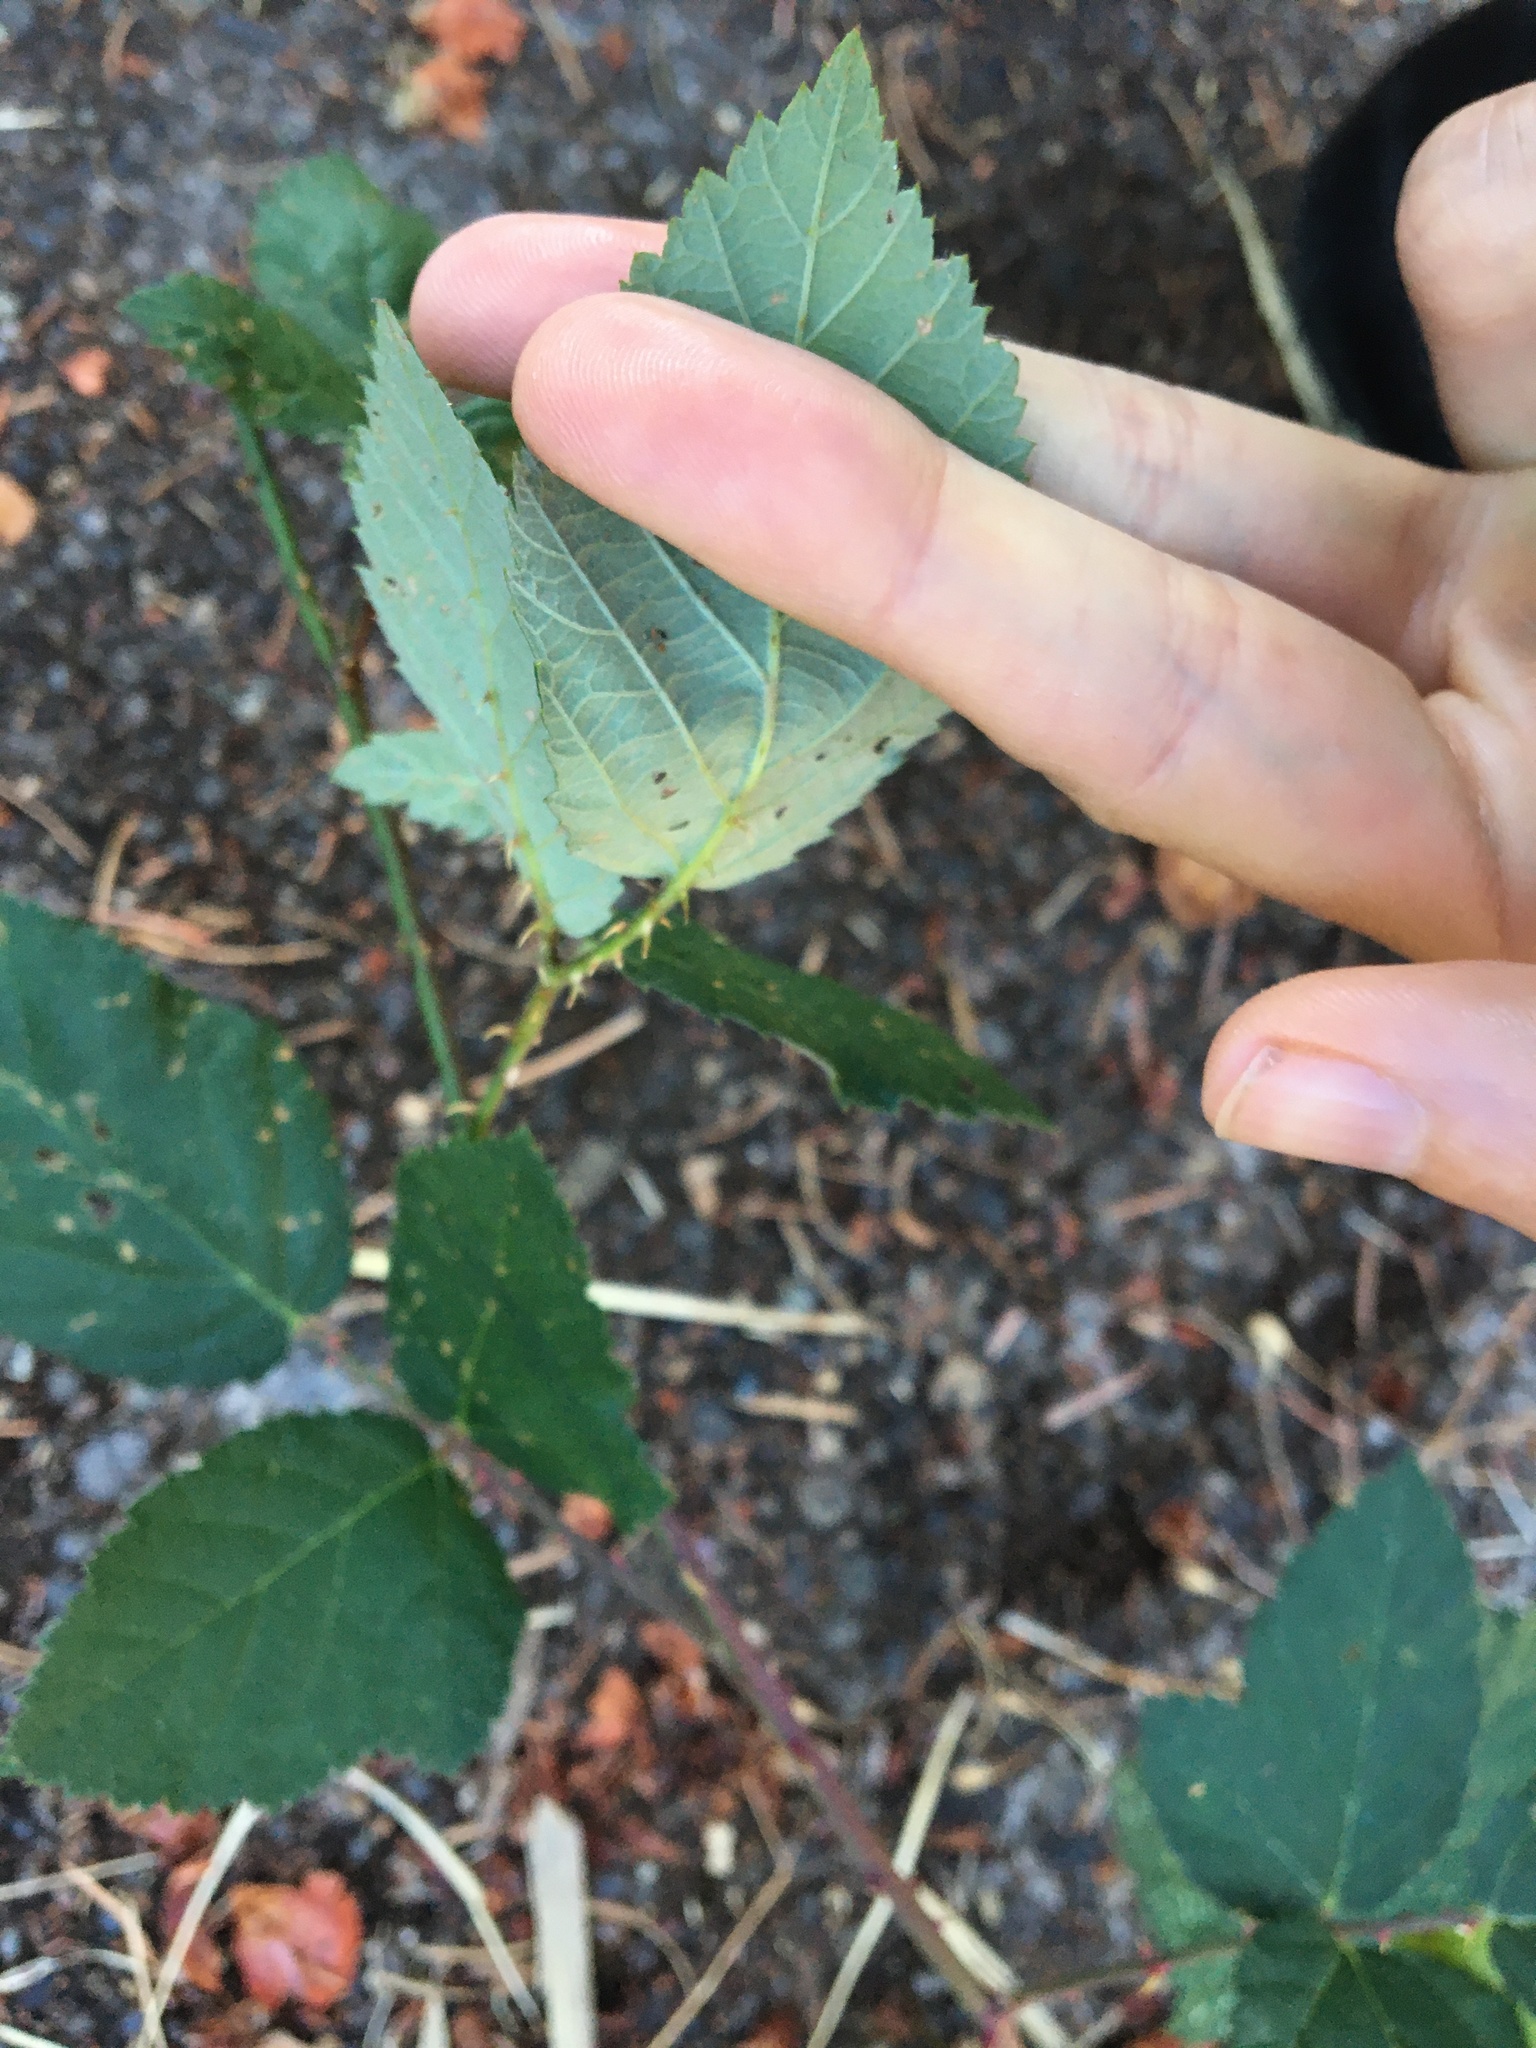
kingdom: Plantae
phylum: Tracheophyta
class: Magnoliopsida
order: Rosales
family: Rosaceae
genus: Rubus
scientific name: Rubus bifrons
